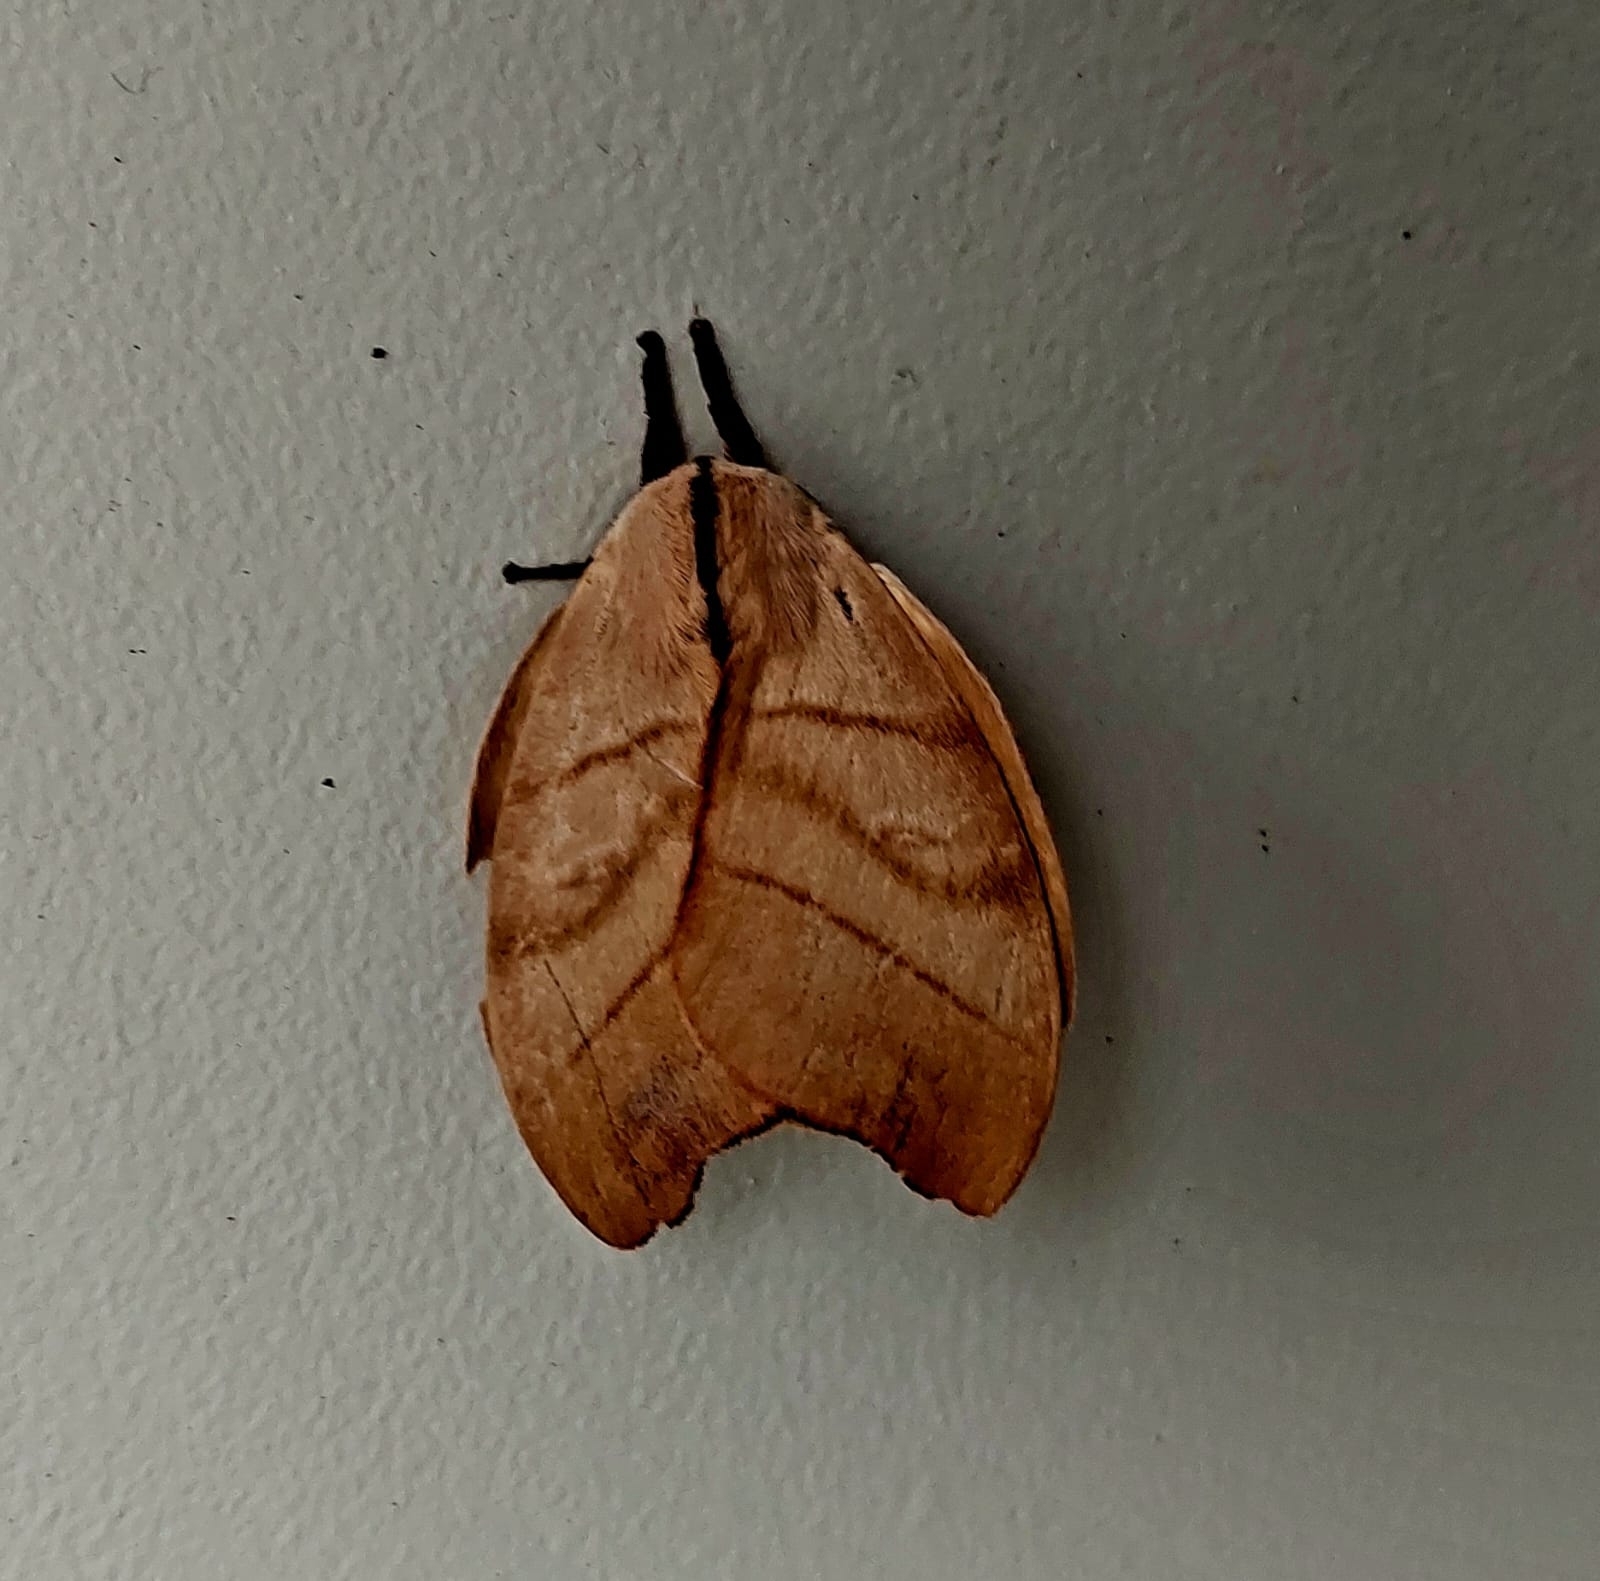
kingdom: Animalia
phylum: Arthropoda
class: Insecta
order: Lepidoptera
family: Saturniidae
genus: Hyperchiria
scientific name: Hyperchiria incisa
